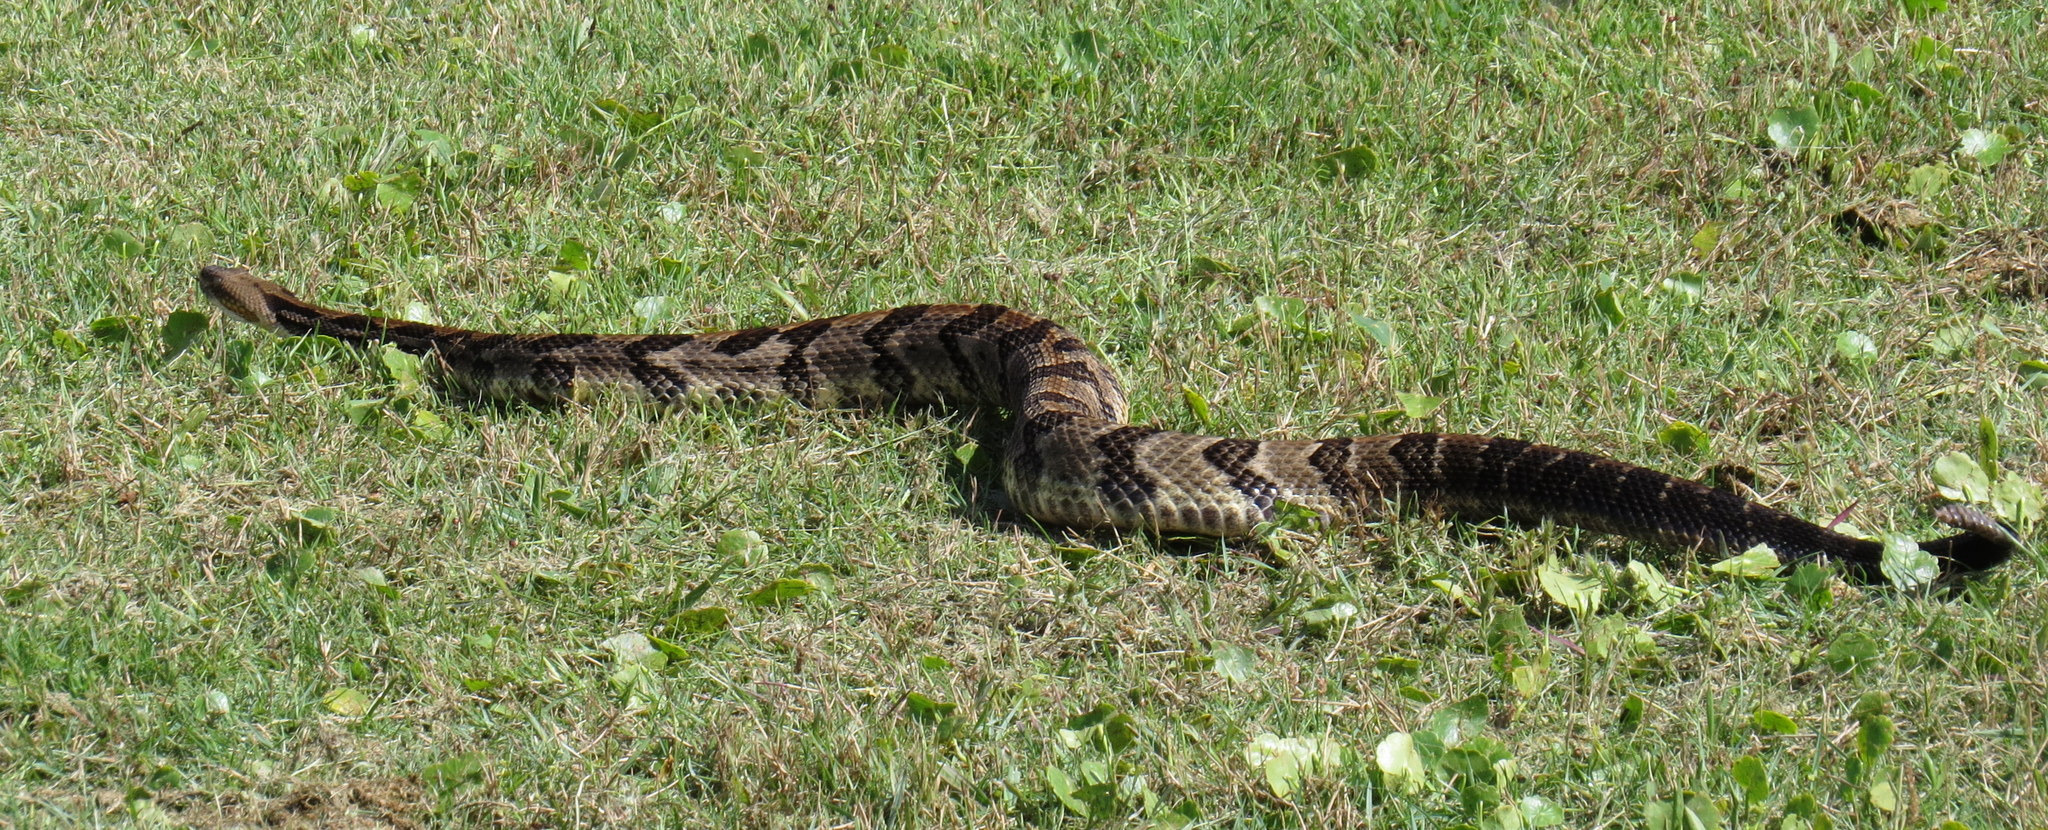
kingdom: Animalia
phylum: Chordata
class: Squamata
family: Viperidae
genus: Crotalus
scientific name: Crotalus horridus
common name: Timber rattlesnake
